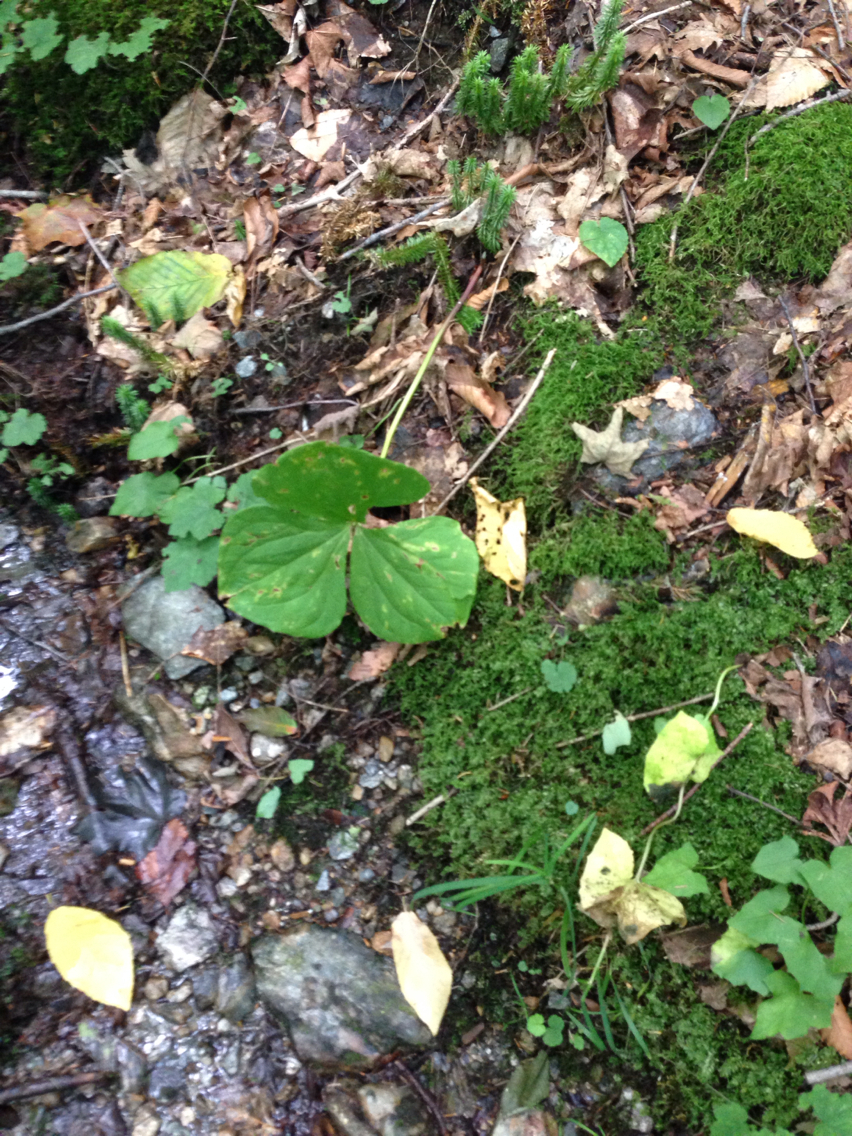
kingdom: Plantae
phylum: Tracheophyta
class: Liliopsida
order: Liliales
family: Melanthiaceae
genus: Trillium
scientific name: Trillium erectum
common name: Purple trillium
